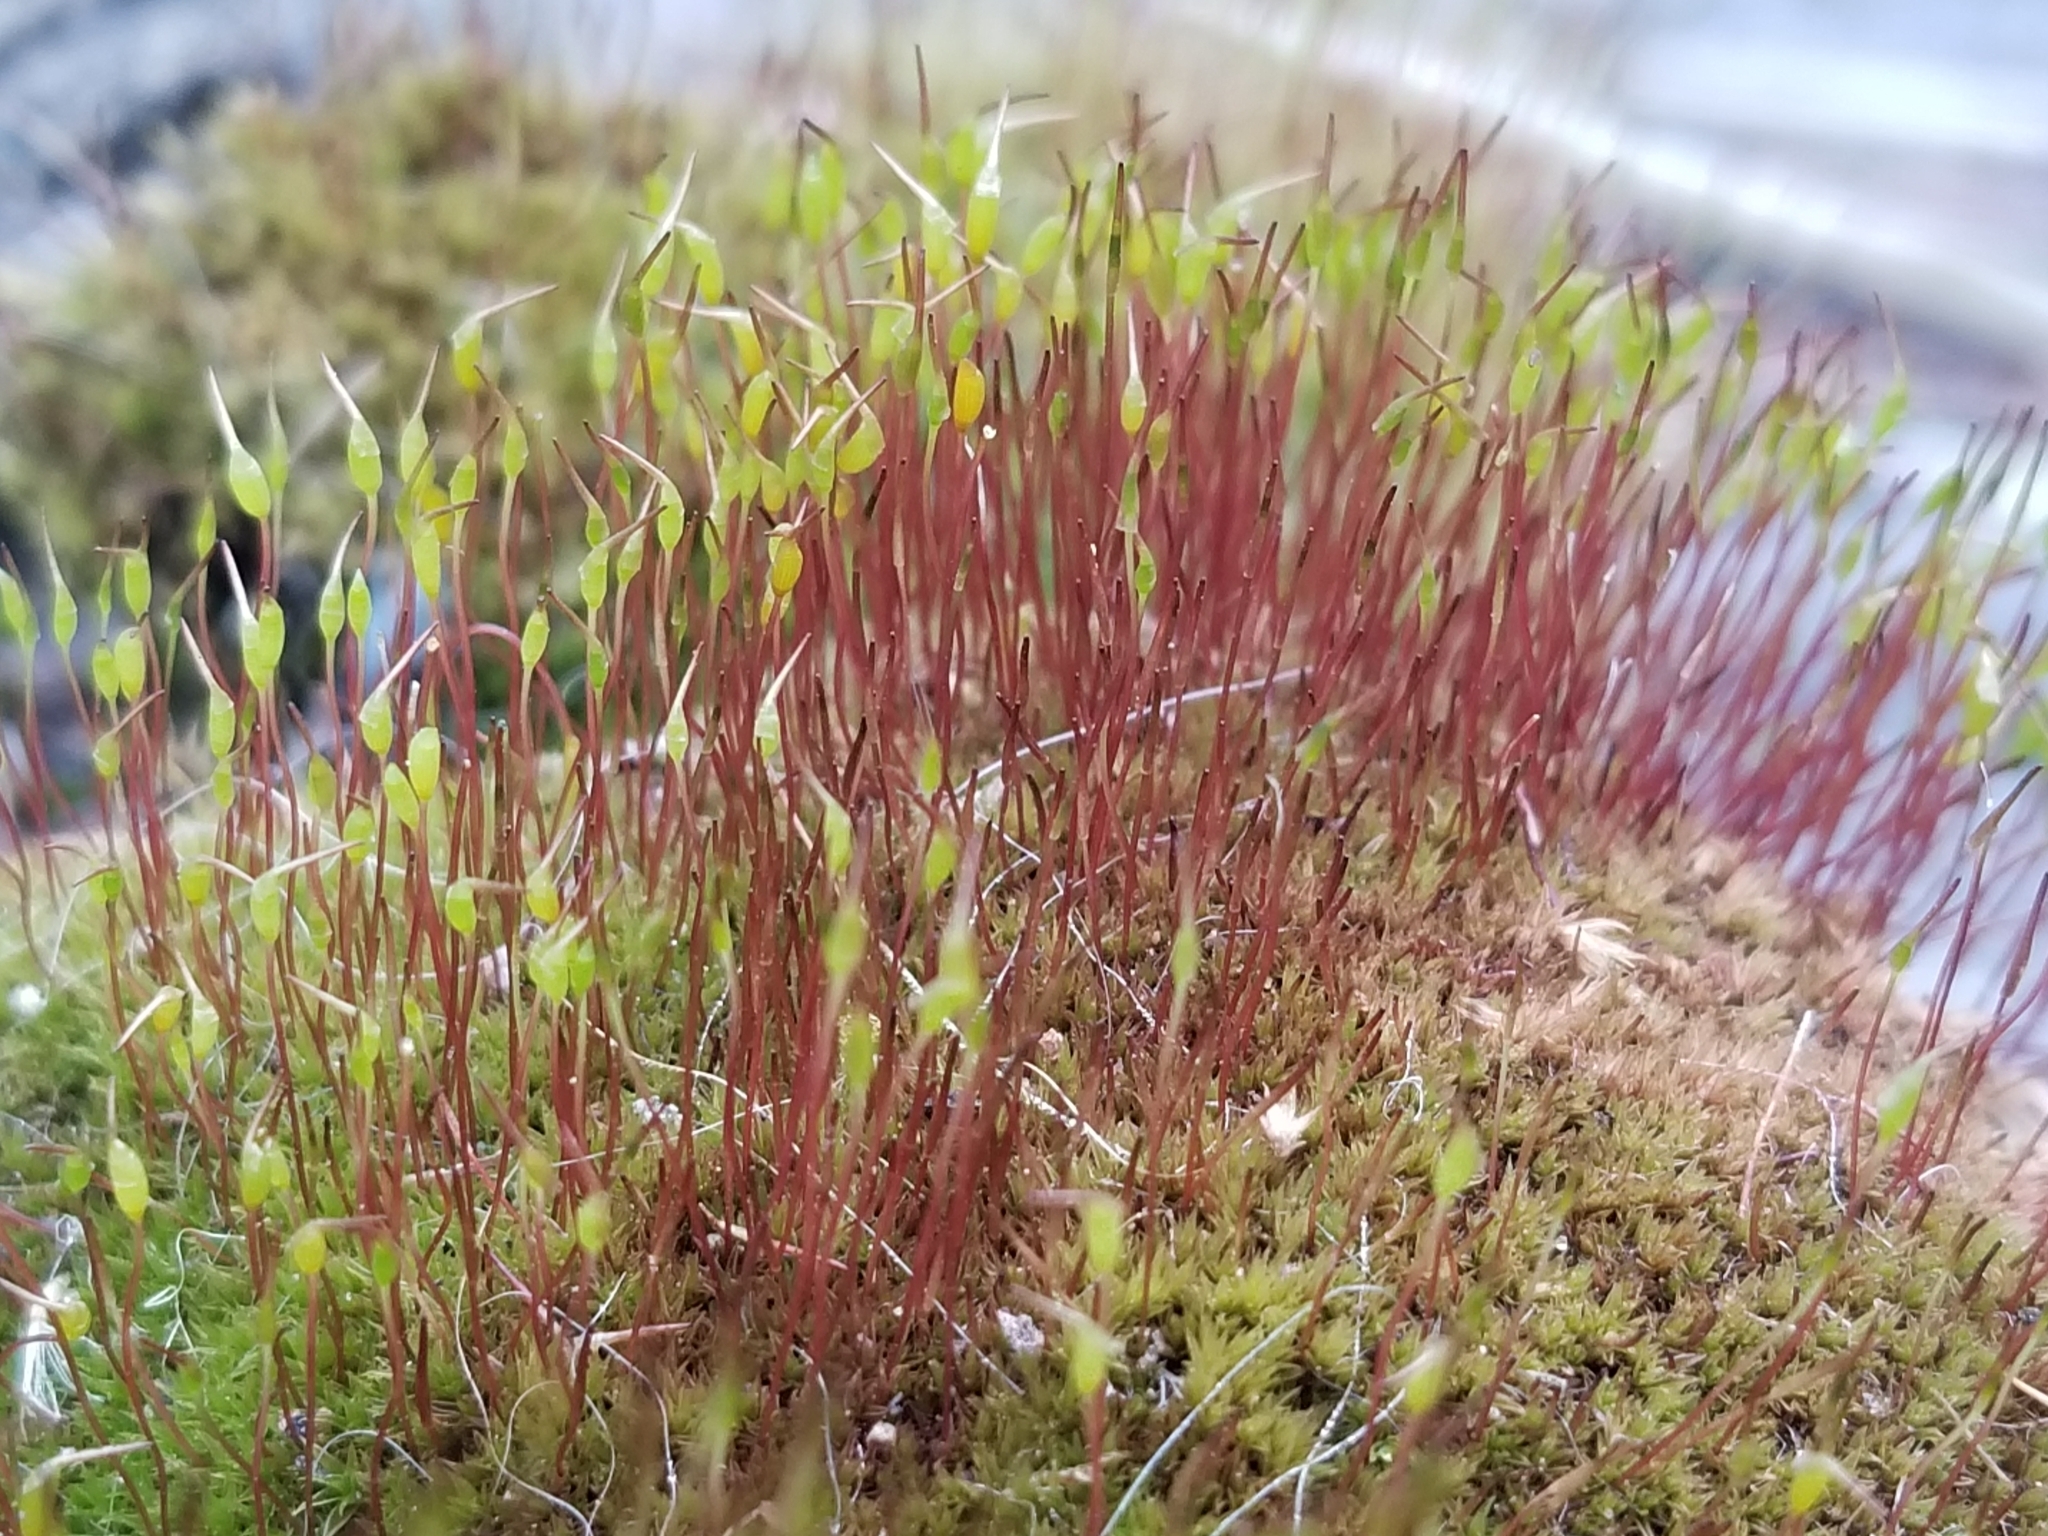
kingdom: Plantae
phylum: Bryophyta
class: Bryopsida
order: Dicranales
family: Ditrichaceae
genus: Ceratodon
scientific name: Ceratodon purpureus
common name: Redshank
